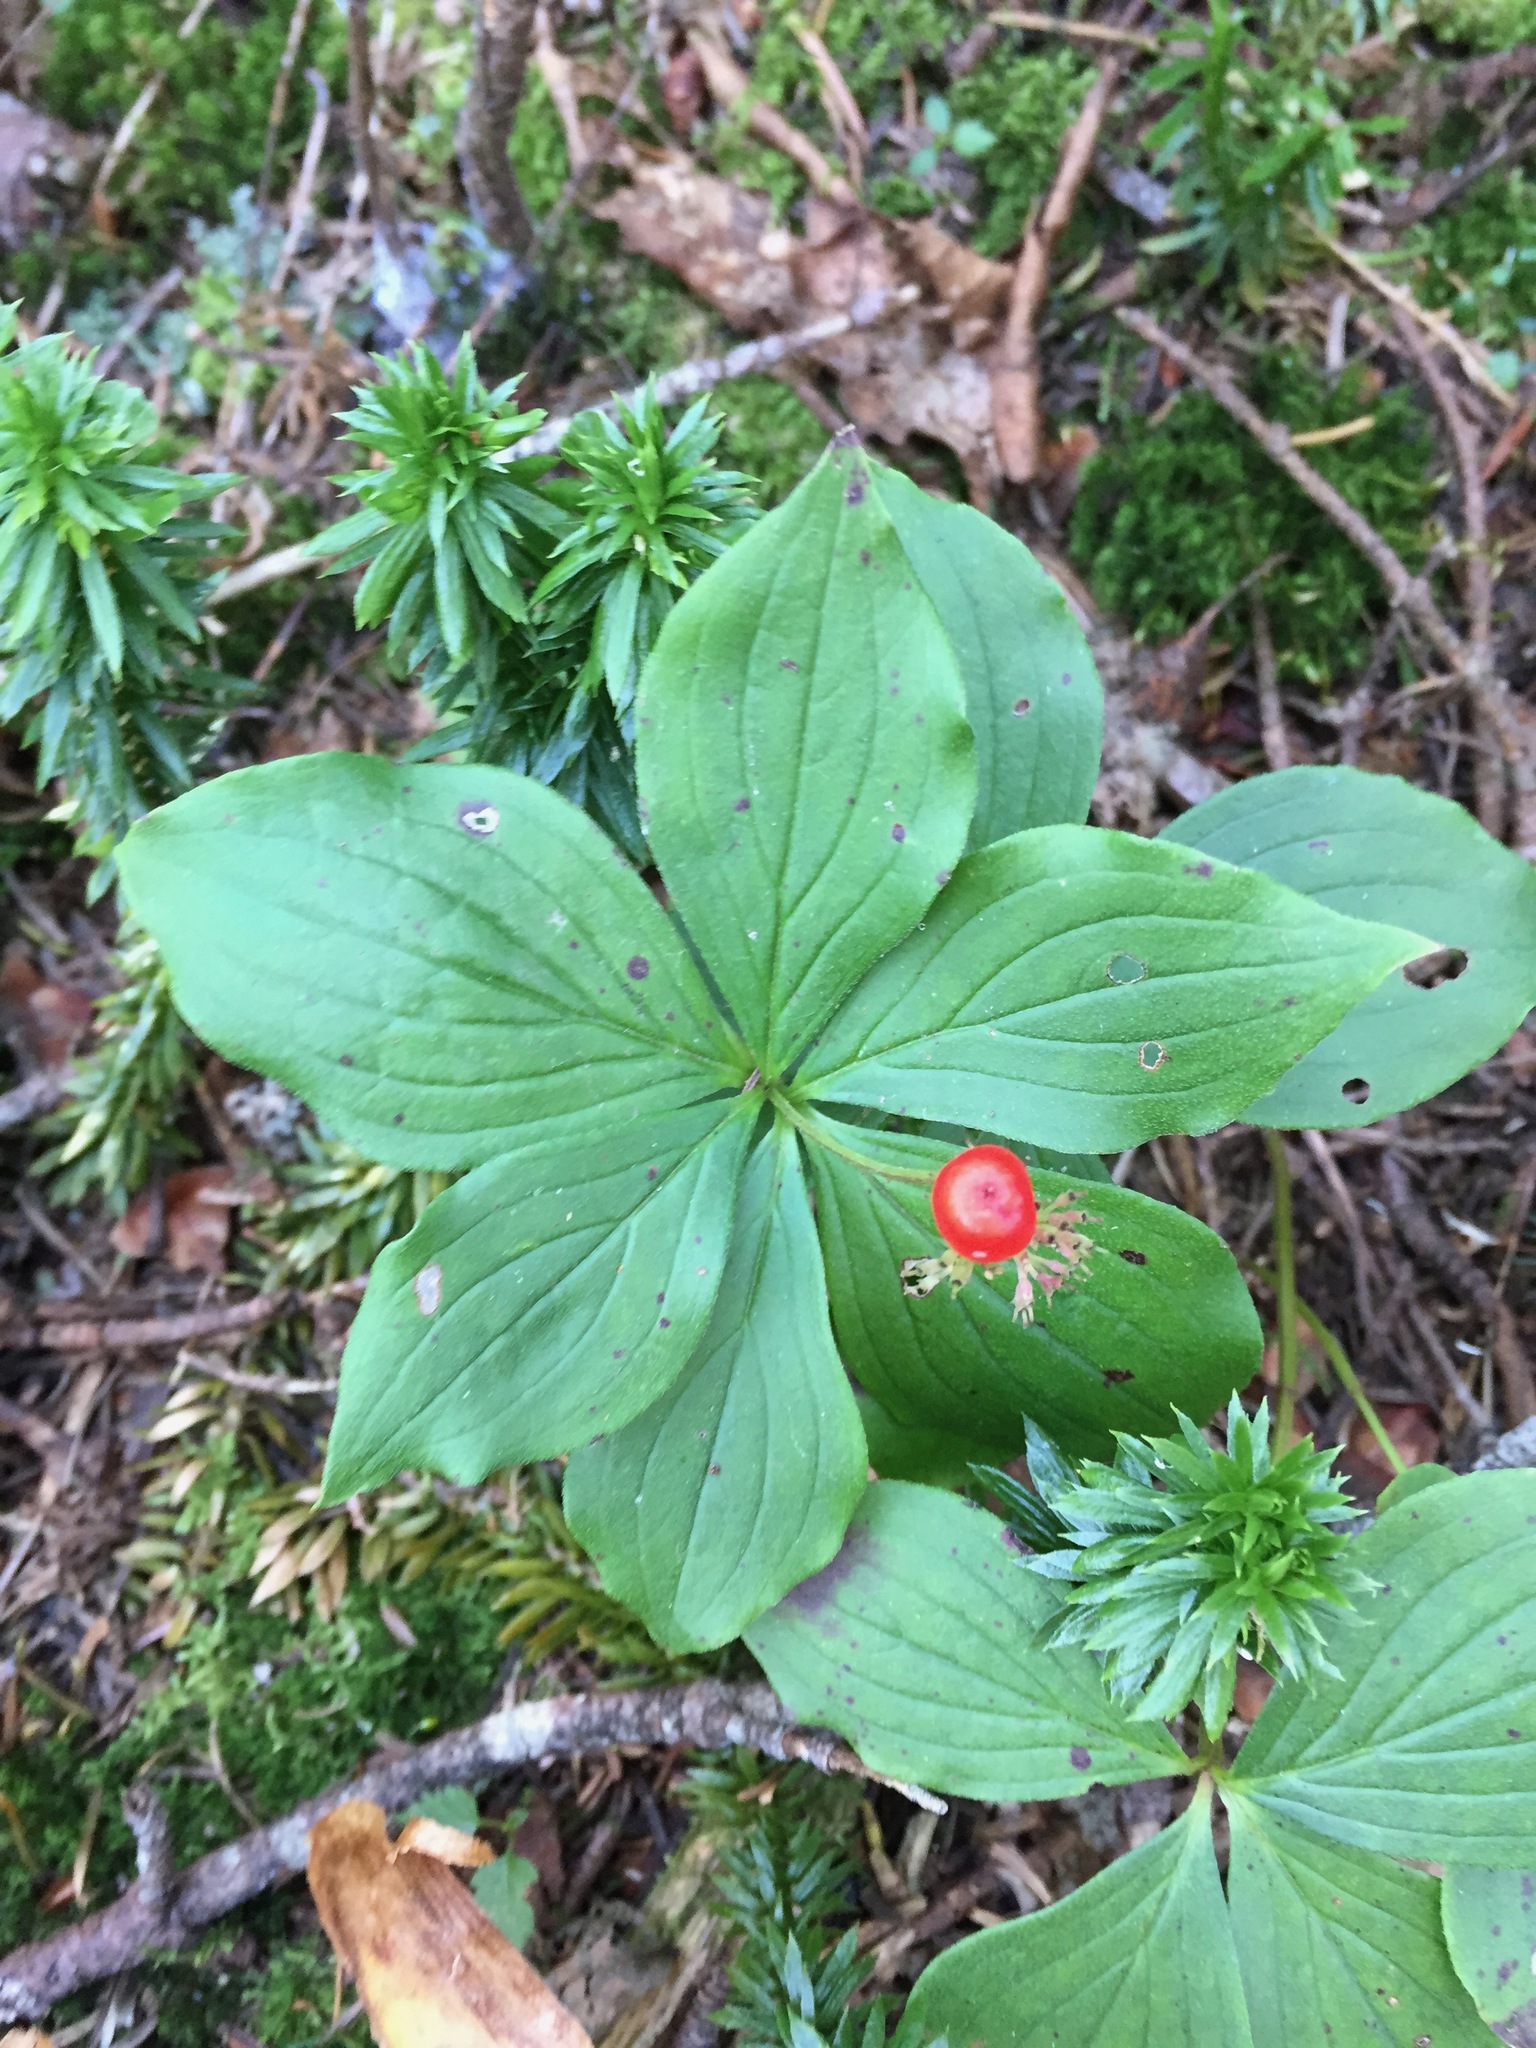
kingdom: Plantae
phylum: Tracheophyta
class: Magnoliopsida
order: Cornales
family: Cornaceae
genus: Cornus
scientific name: Cornus canadensis
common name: Creeping dogwood
